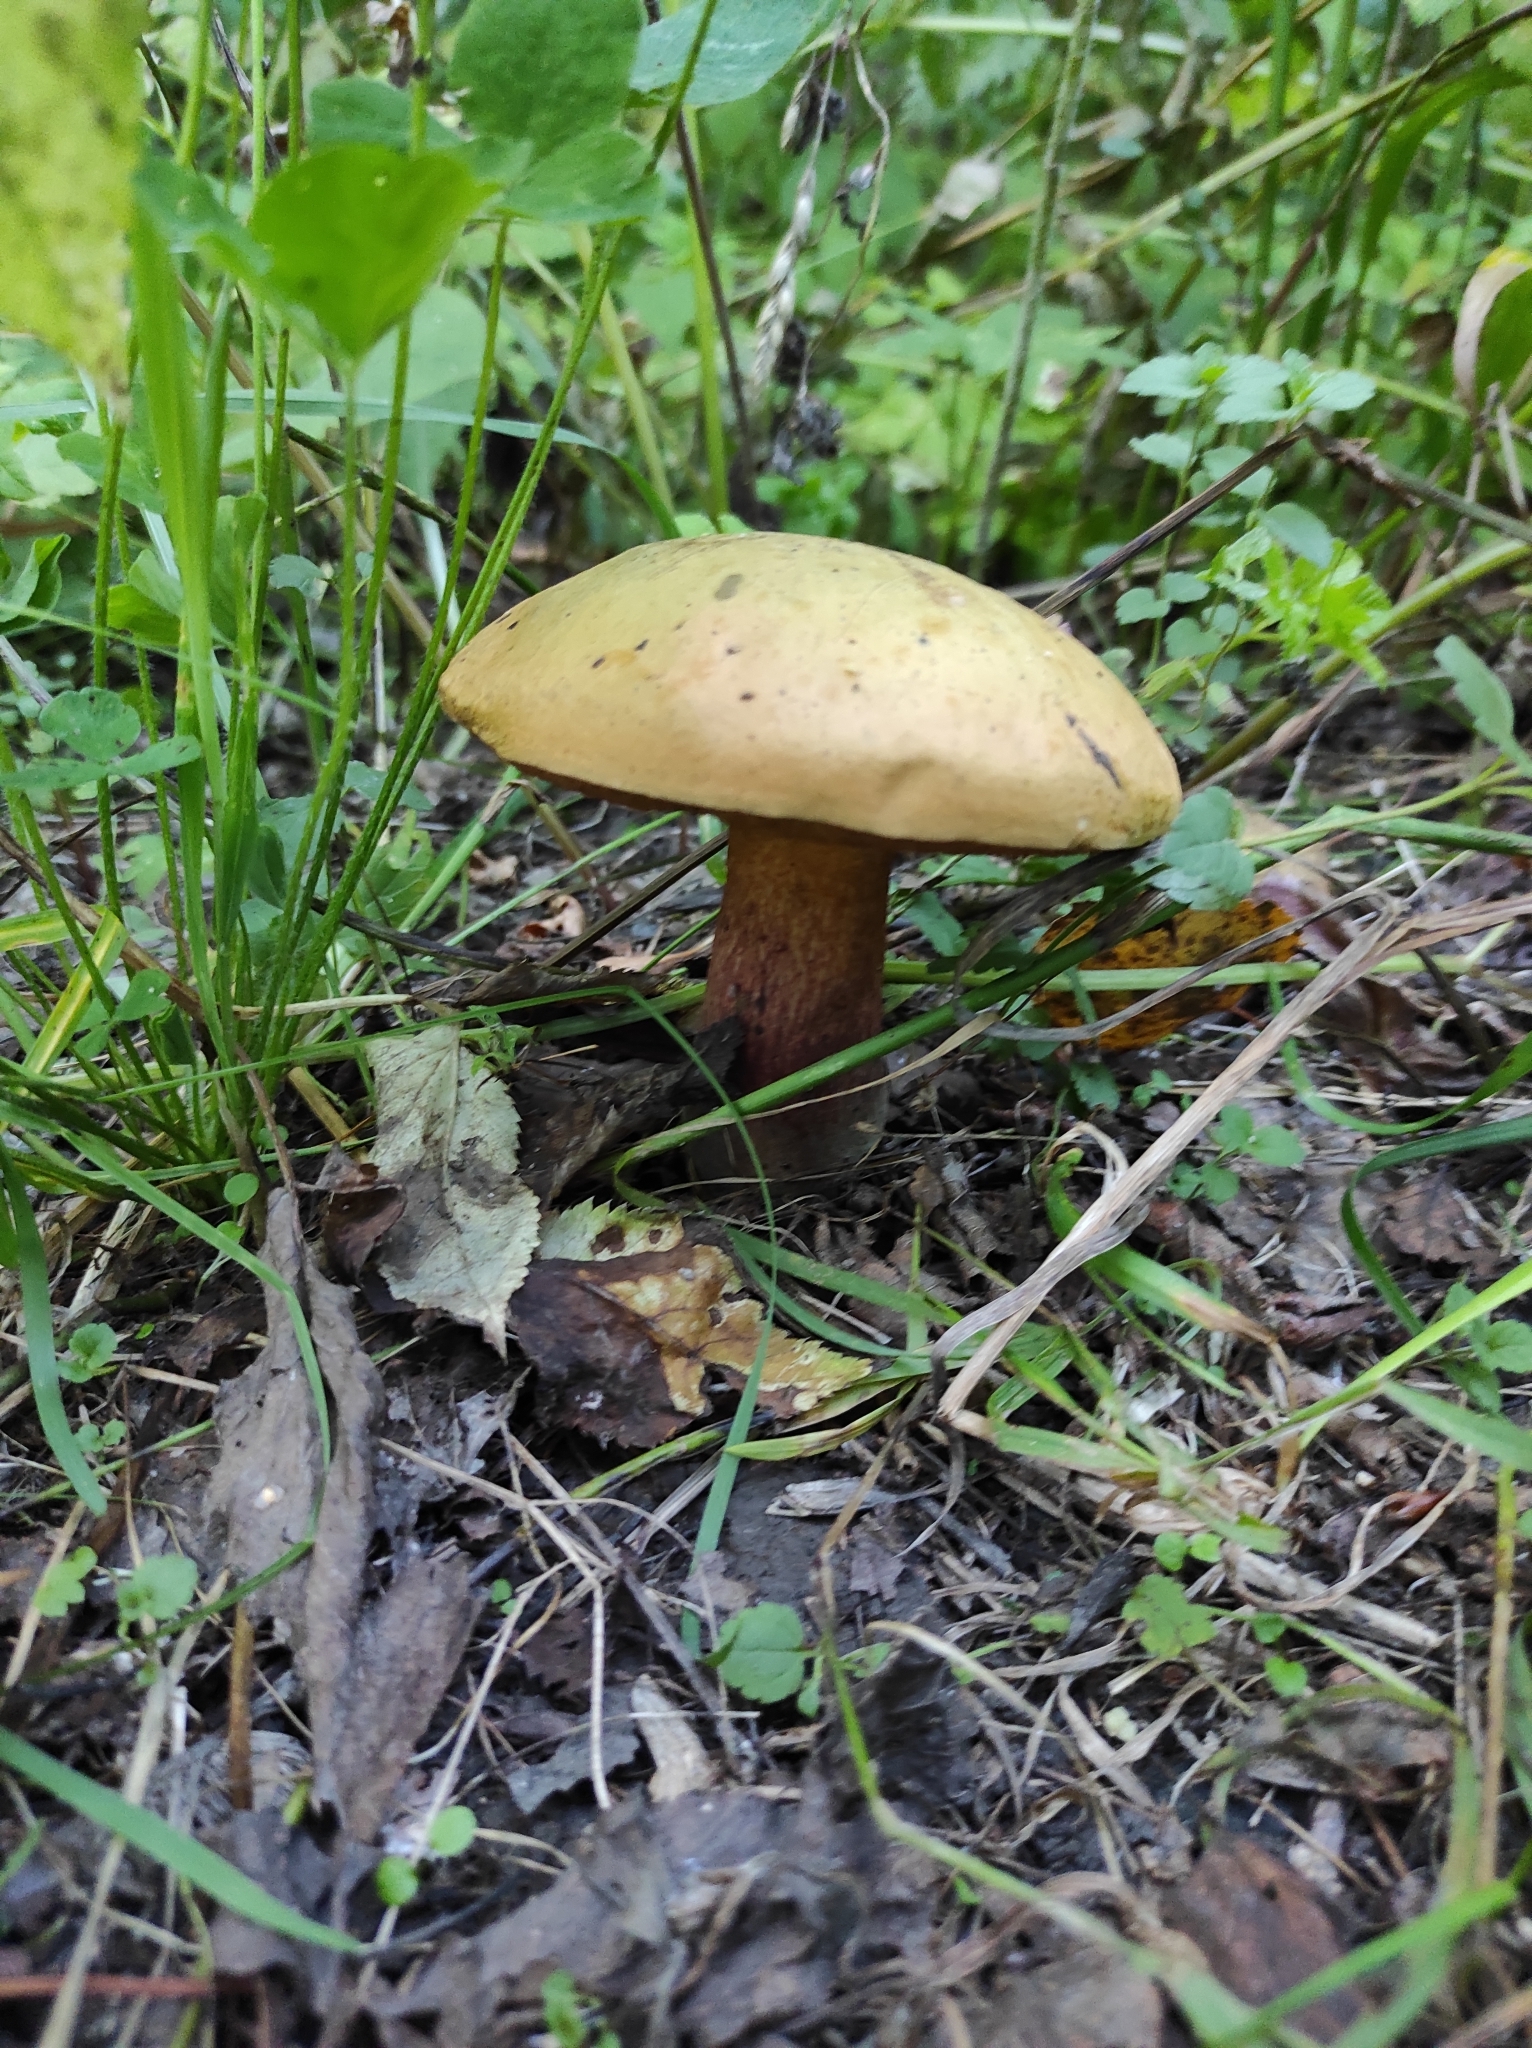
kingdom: Fungi
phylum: Basidiomycota
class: Agaricomycetes
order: Boletales
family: Boletaceae
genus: Suillellus
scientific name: Suillellus luridus
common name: Lurid bolete
